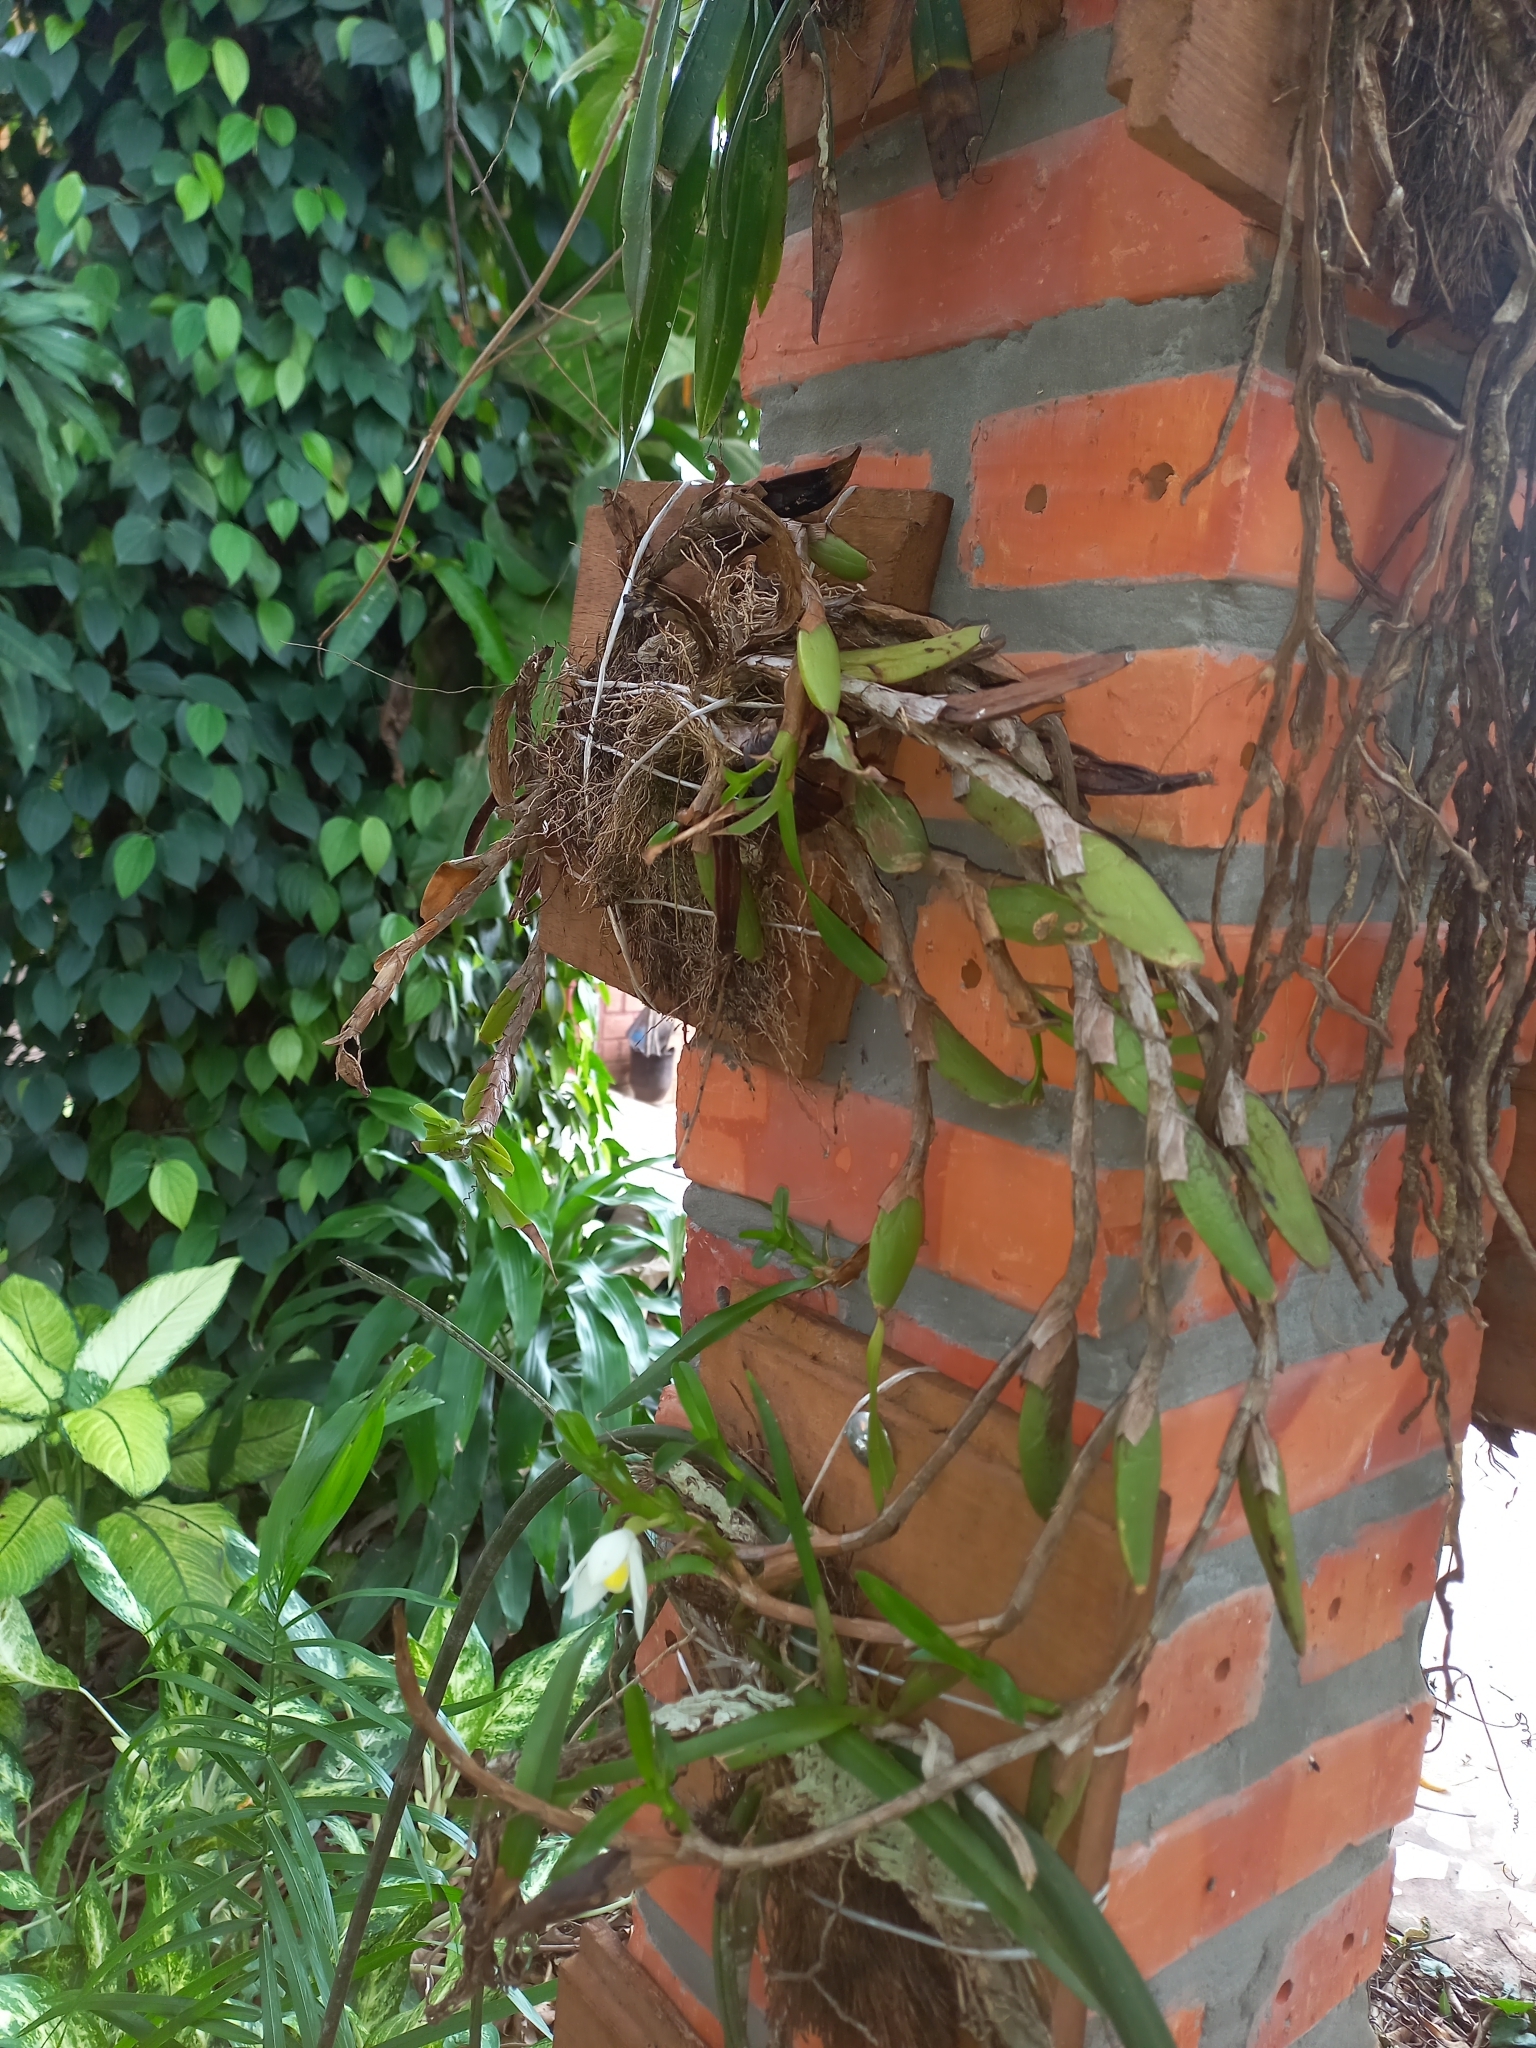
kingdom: Plantae
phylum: Tracheophyta
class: Liliopsida
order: Asparagales
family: Orchidaceae
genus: Maxillaria
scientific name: Maxillaria lutescens
